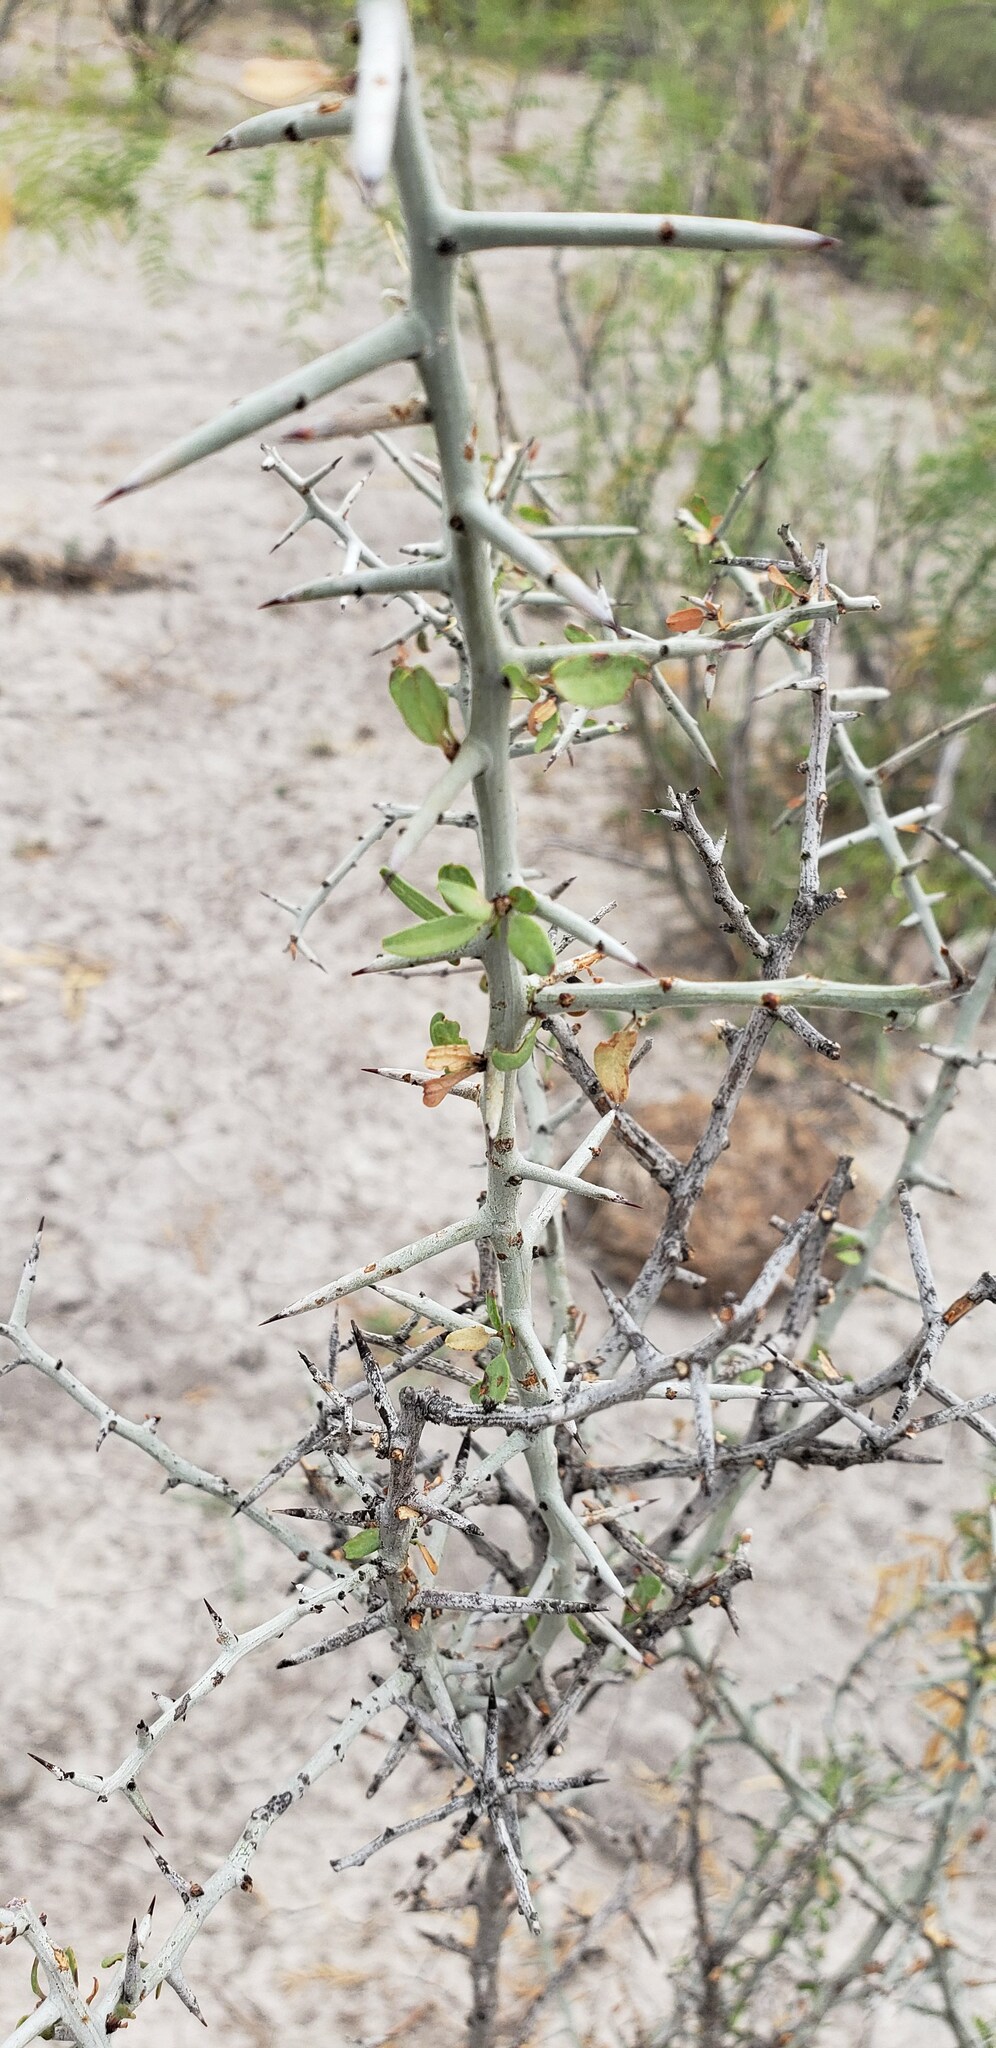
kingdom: Plantae
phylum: Tracheophyta
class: Magnoliopsida
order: Rosales
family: Rhamnaceae
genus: Sarcomphalus
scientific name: Sarcomphalus obtusifolius
